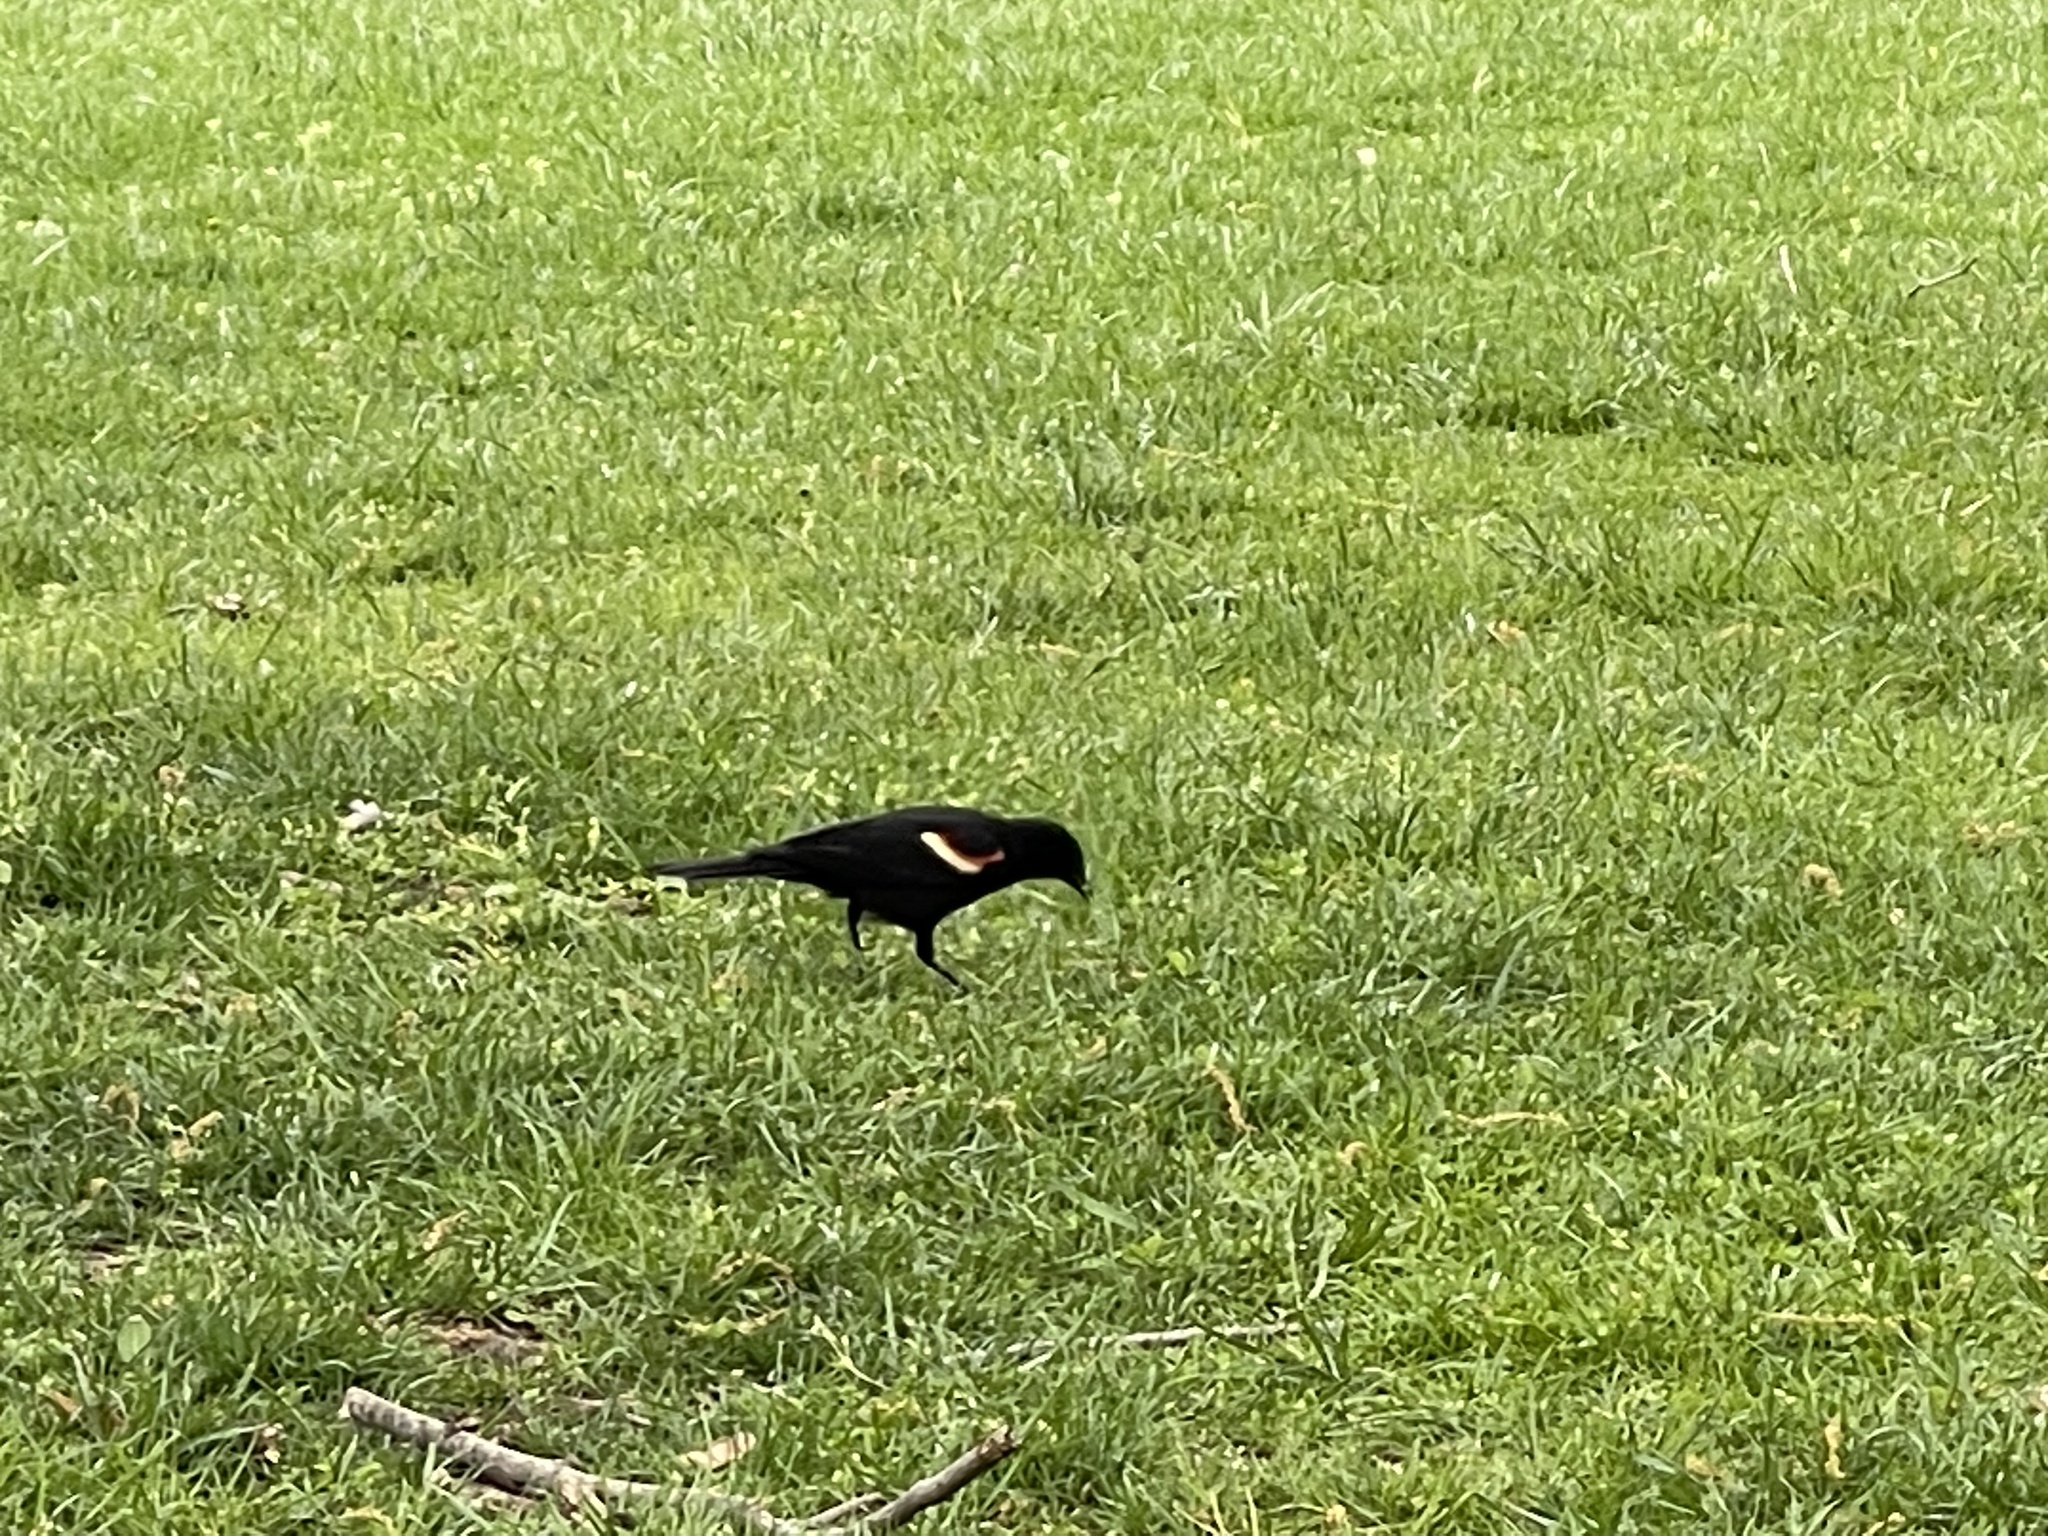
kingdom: Animalia
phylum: Chordata
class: Aves
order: Passeriformes
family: Icteridae
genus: Agelaius
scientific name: Agelaius phoeniceus
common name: Red-winged blackbird
